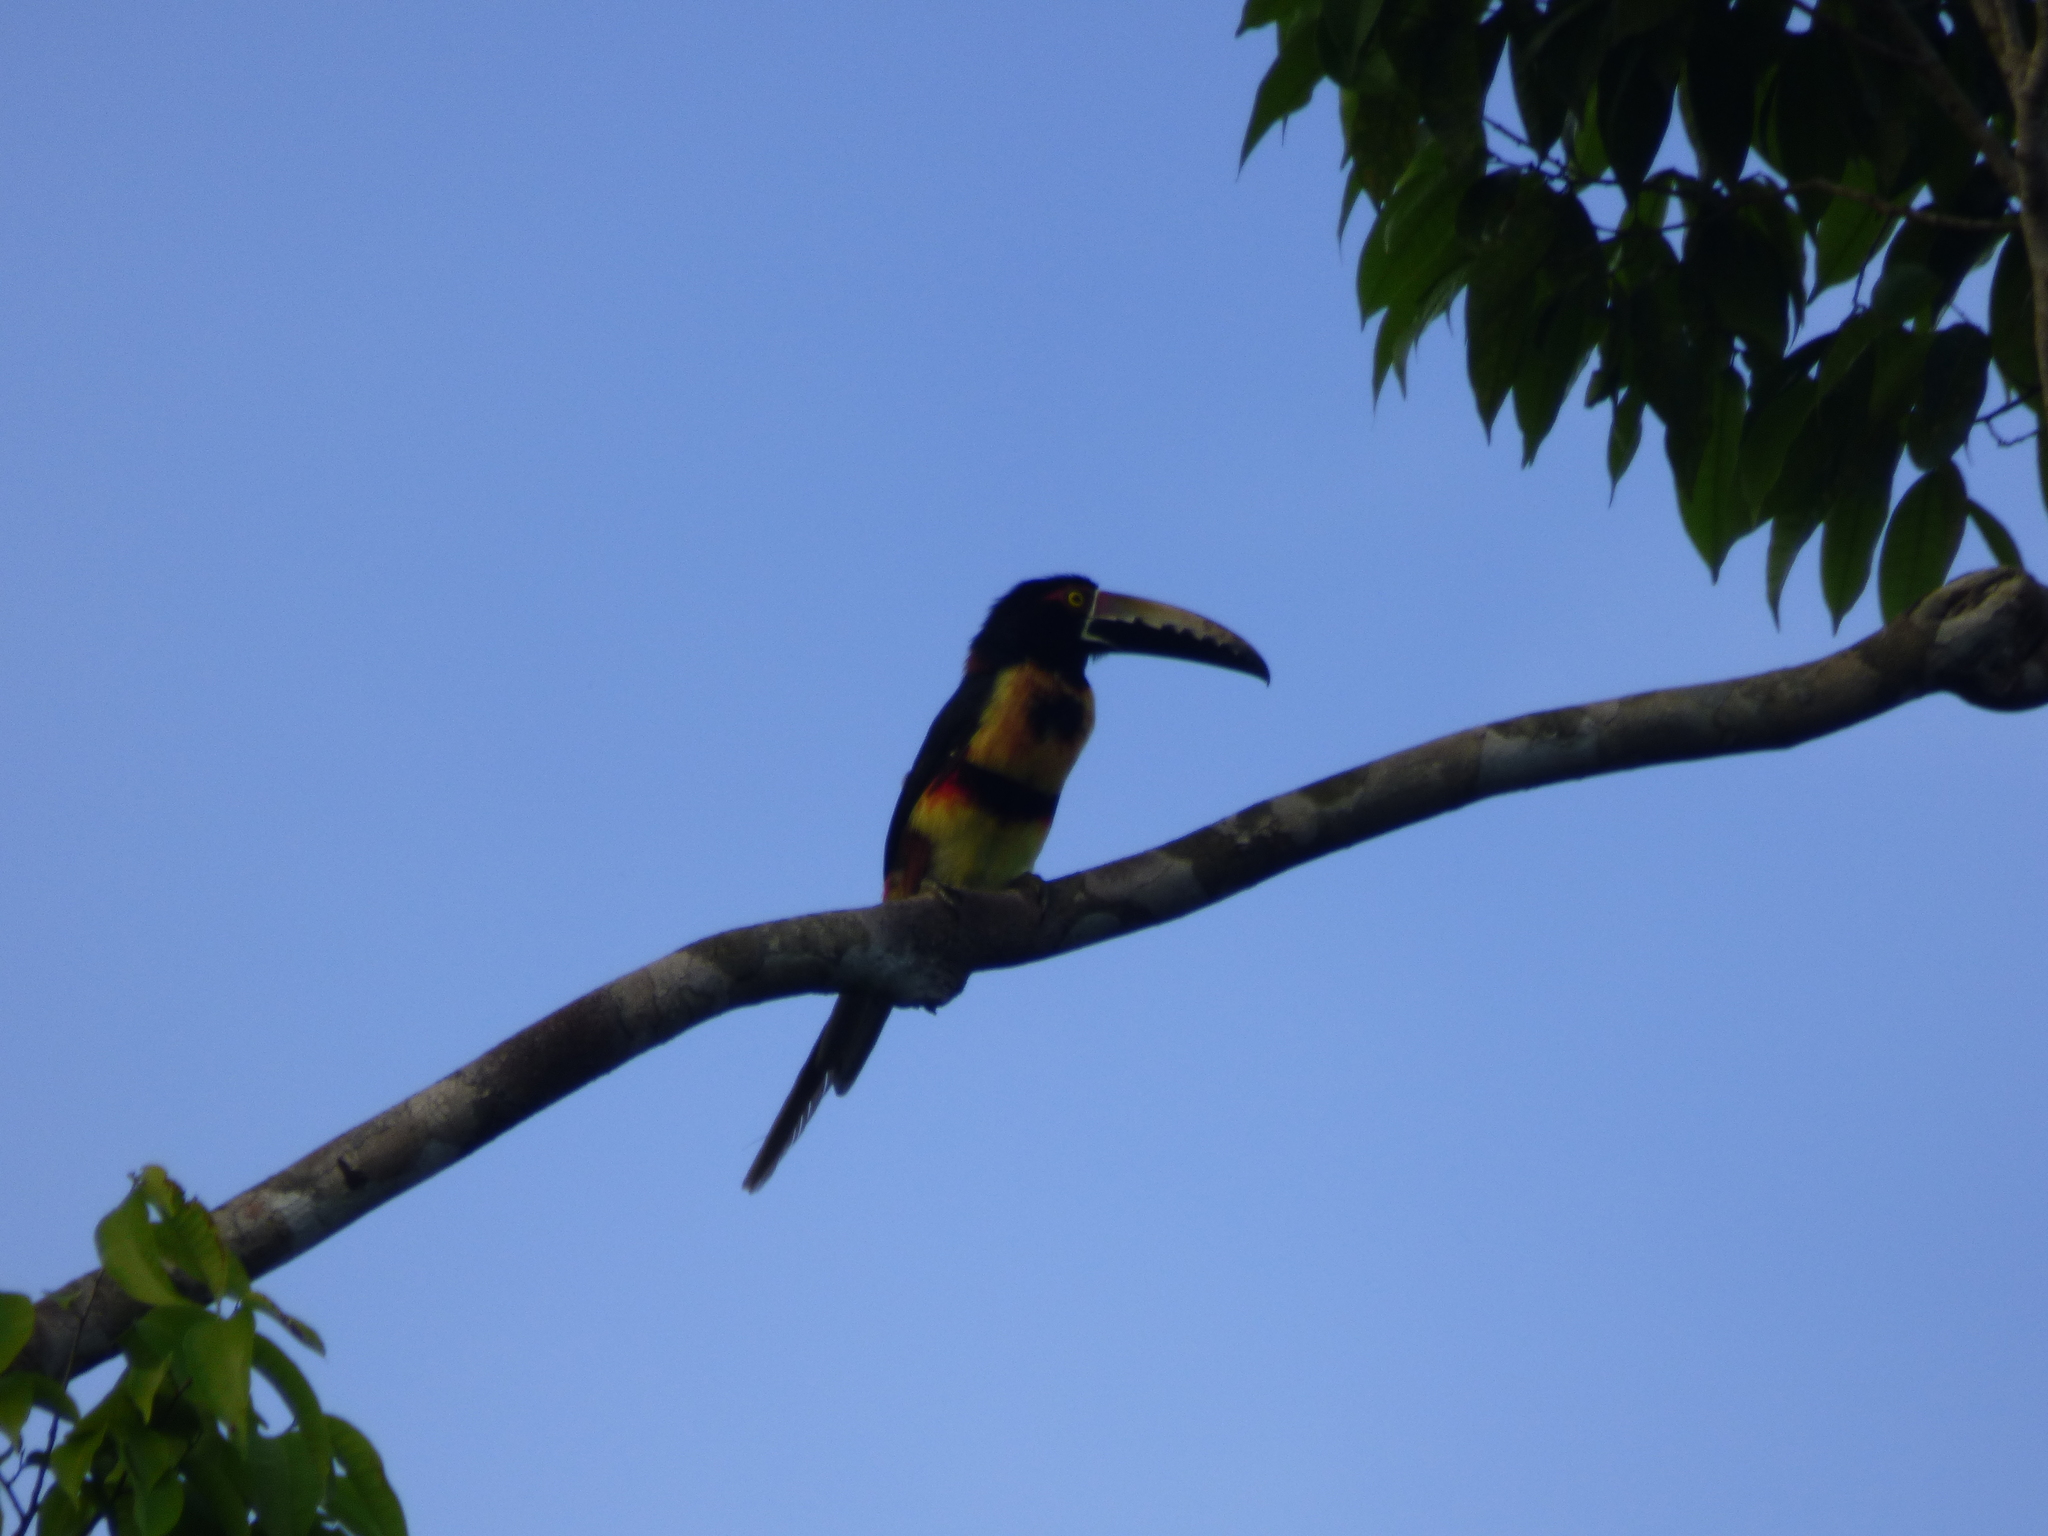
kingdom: Animalia
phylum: Chordata
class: Aves
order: Piciformes
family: Ramphastidae
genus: Pteroglossus
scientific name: Pteroglossus torquatus
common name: Collared aracari
